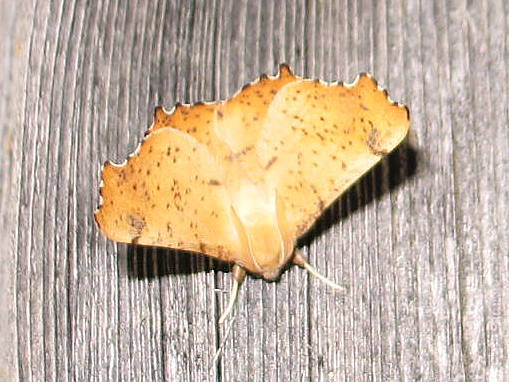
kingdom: Animalia
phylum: Arthropoda
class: Insecta
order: Lepidoptera
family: Geometridae
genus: Ennomos
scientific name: Ennomos magnaria
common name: Maple spanworm
